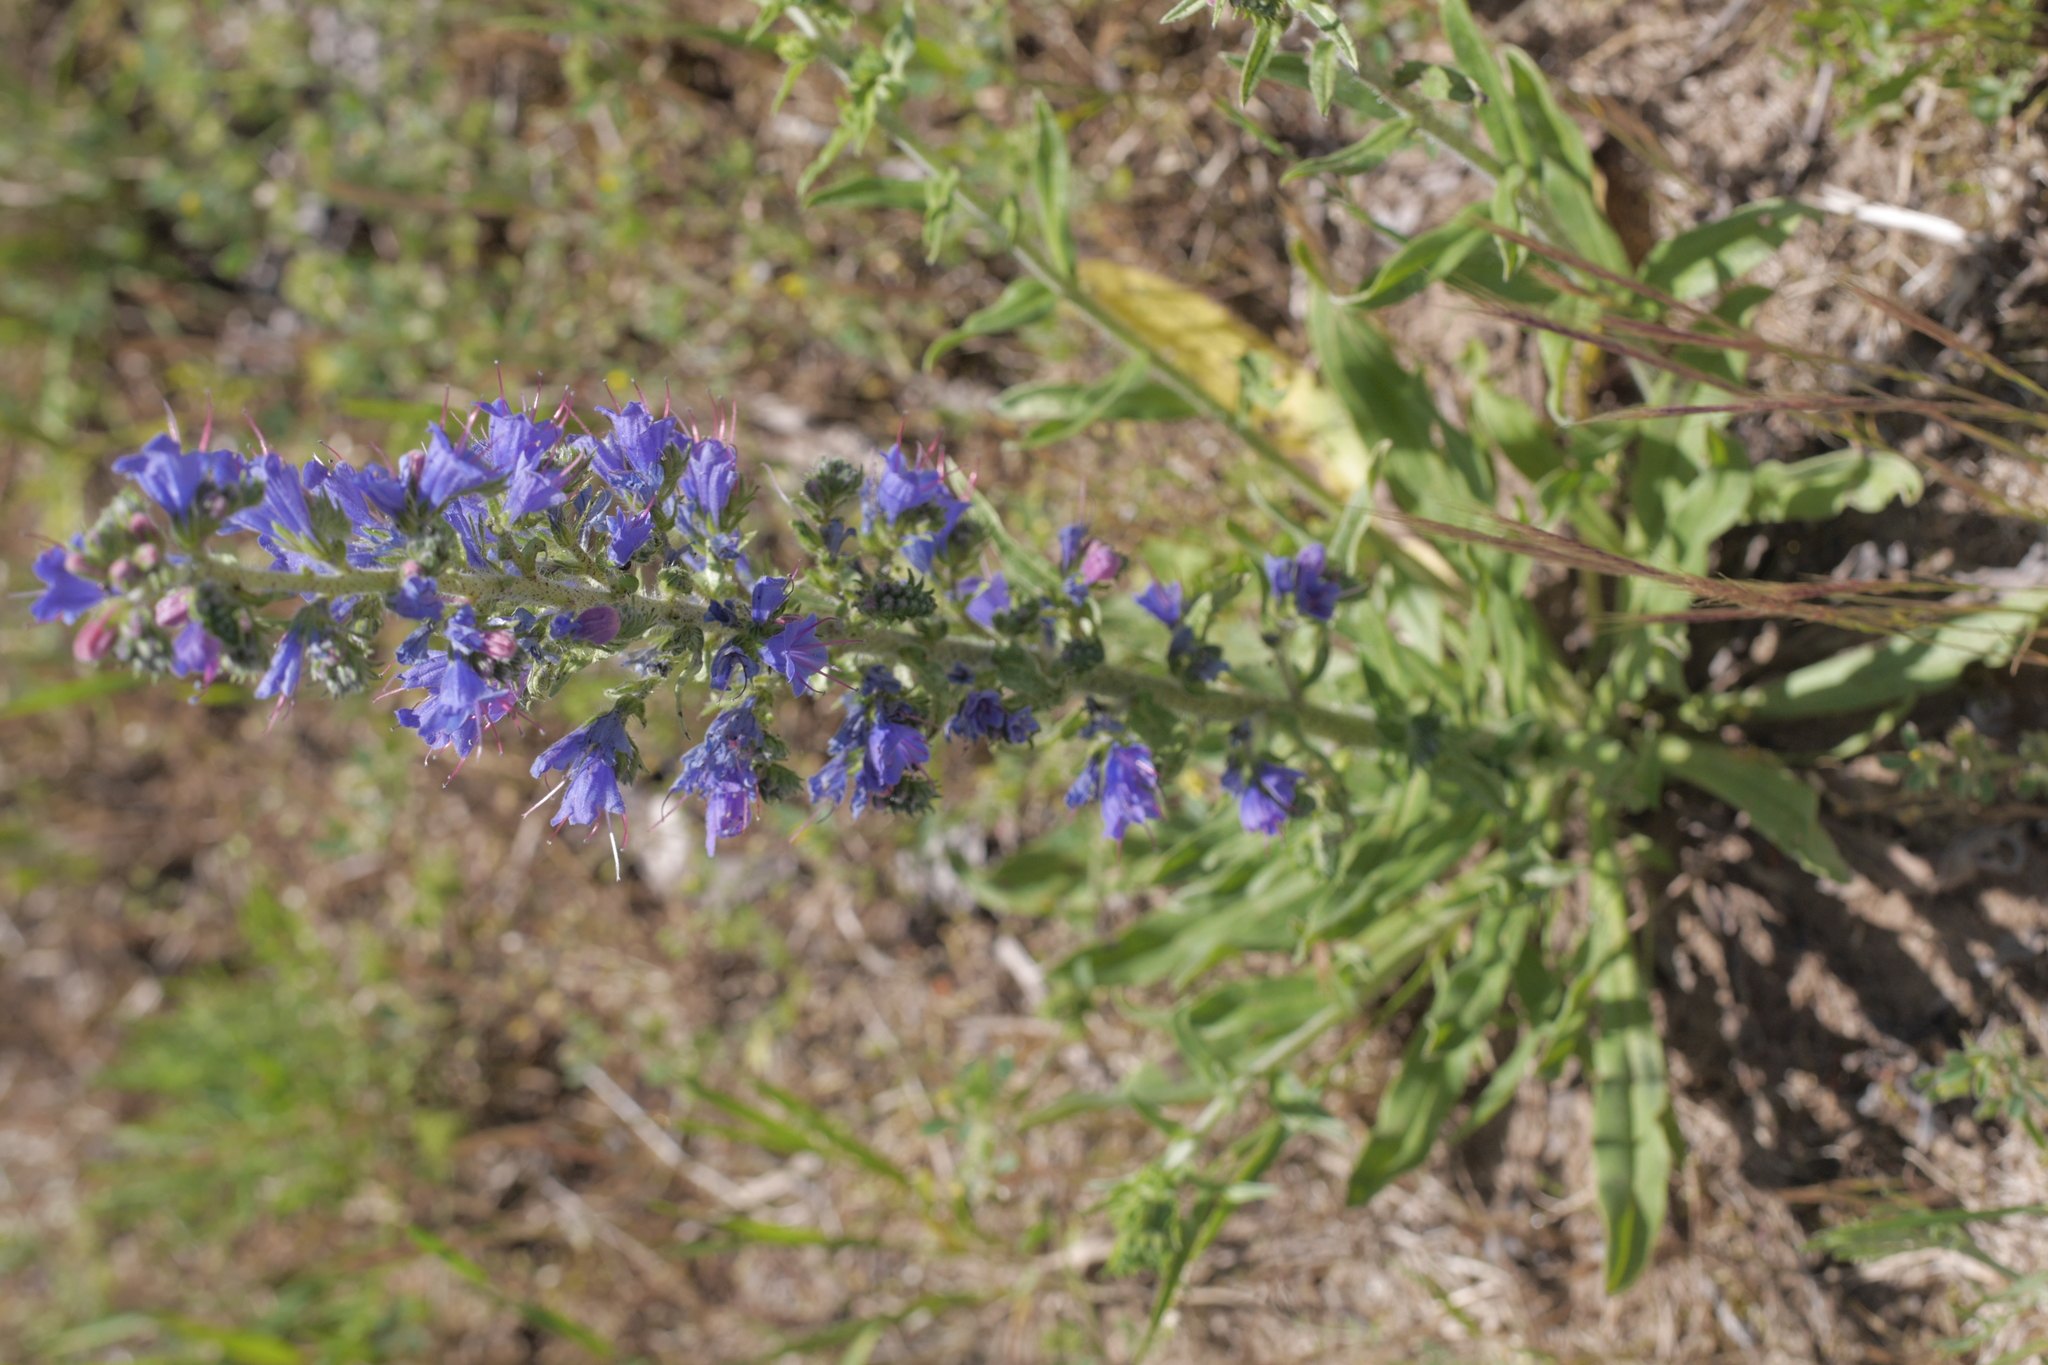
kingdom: Plantae
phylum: Tracheophyta
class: Magnoliopsida
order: Boraginales
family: Boraginaceae
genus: Echium
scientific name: Echium vulgare
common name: Common viper's bugloss
